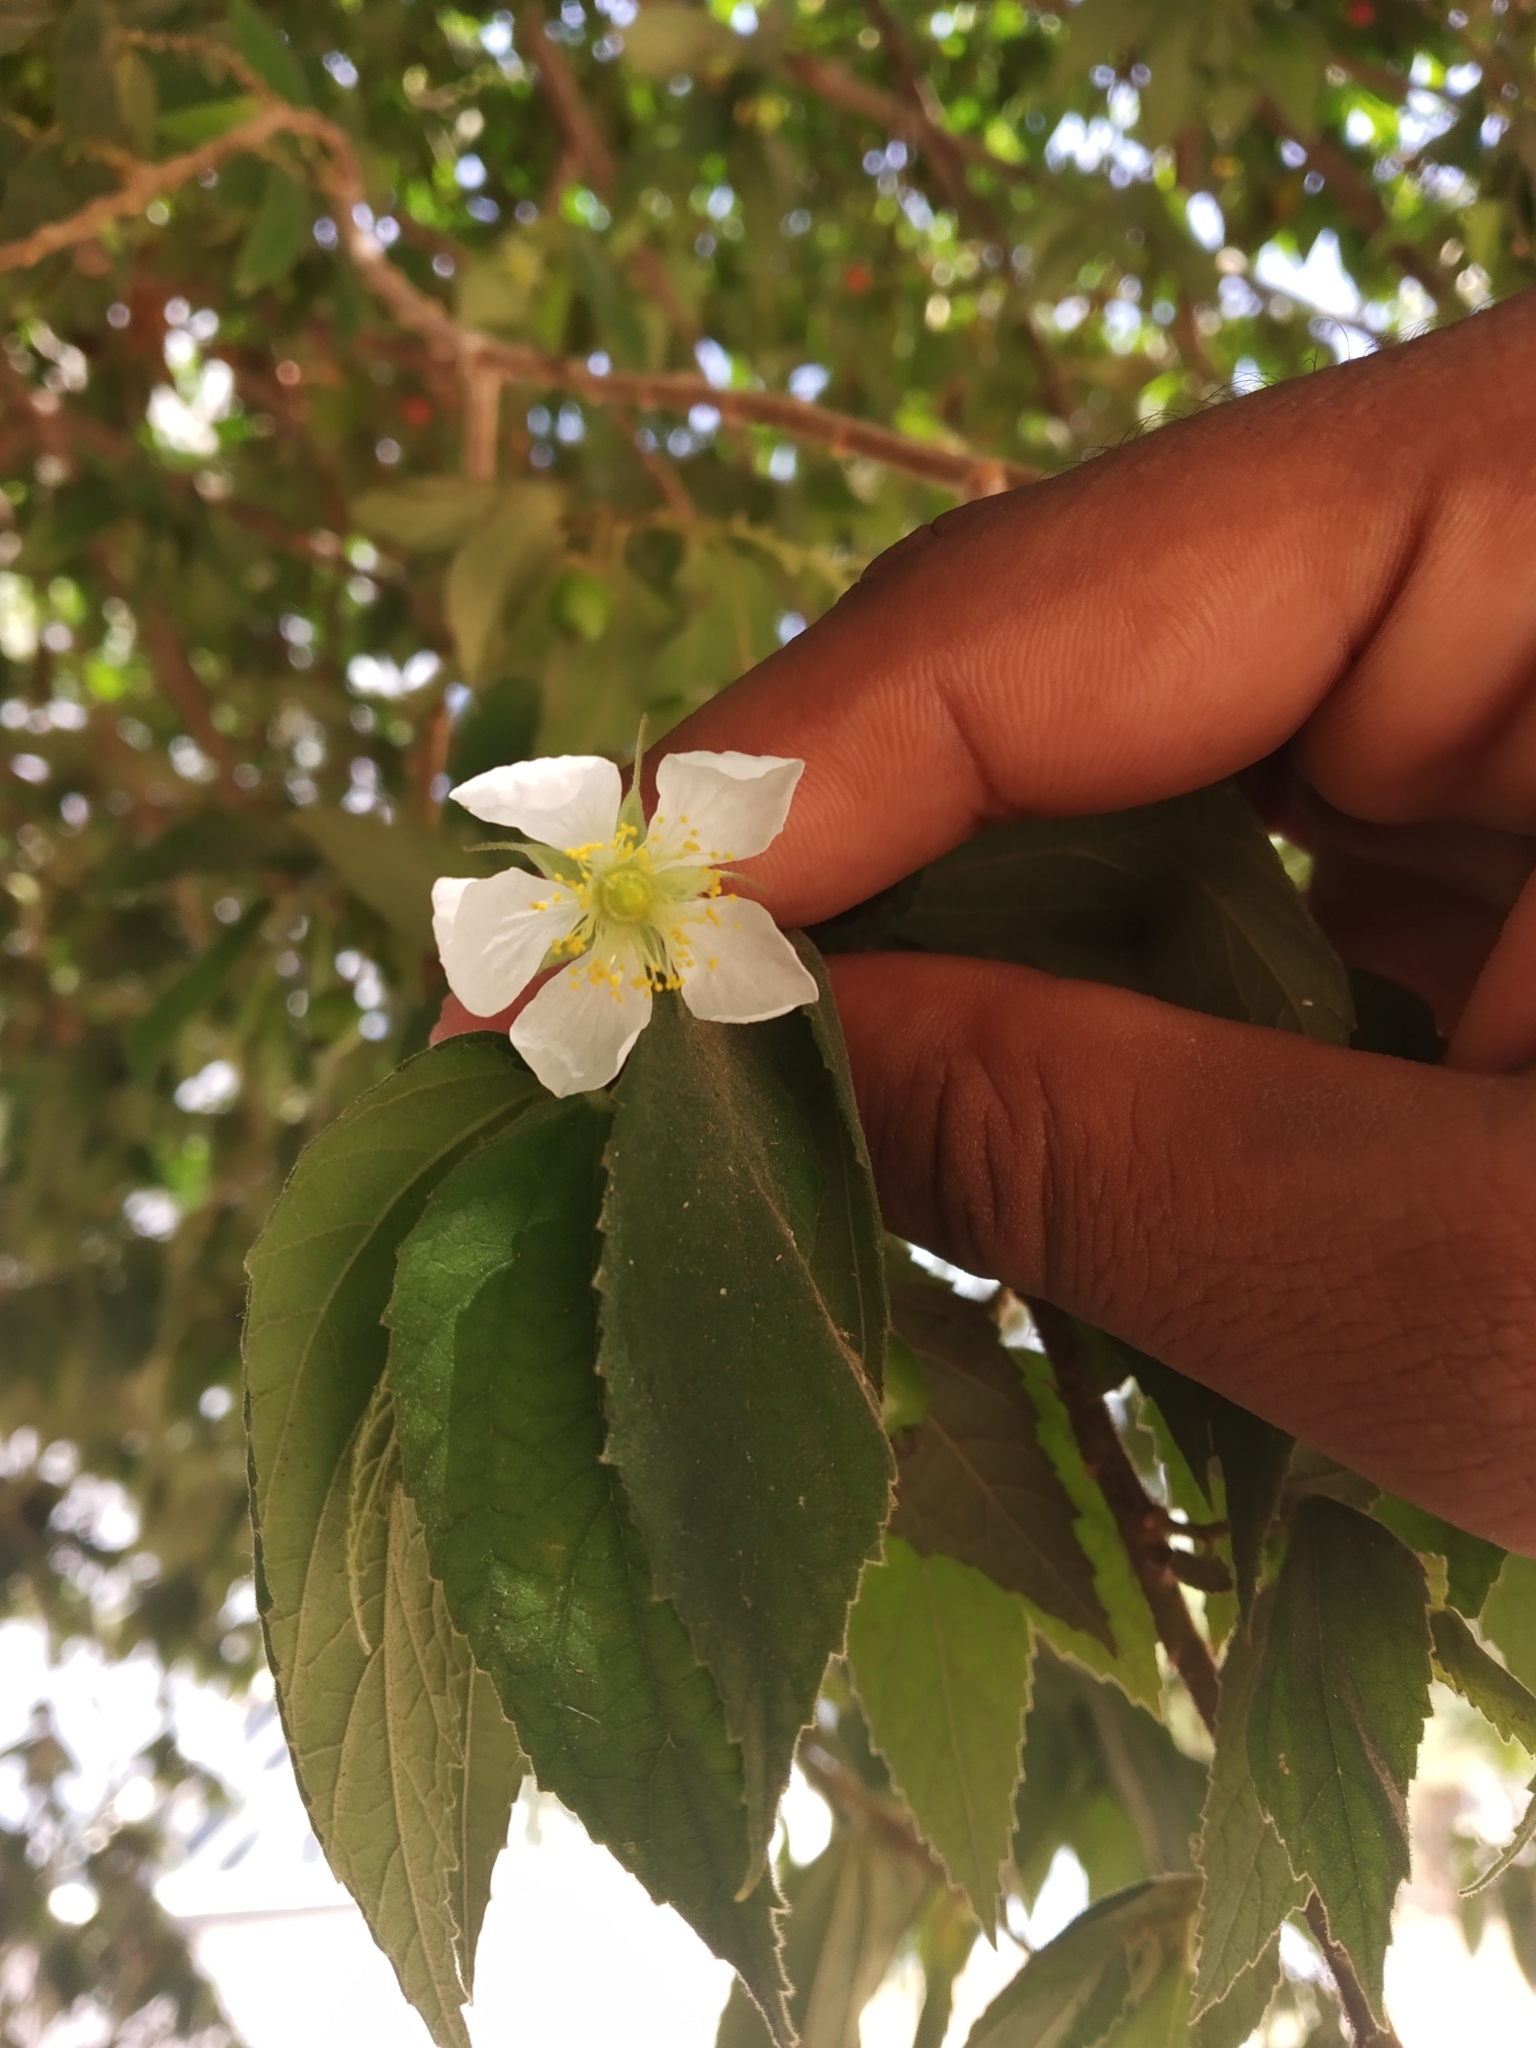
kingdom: Plantae
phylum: Tracheophyta
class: Magnoliopsida
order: Malvales
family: Muntingiaceae
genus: Muntingia
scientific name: Muntingia calabura
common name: Strawberrytree
